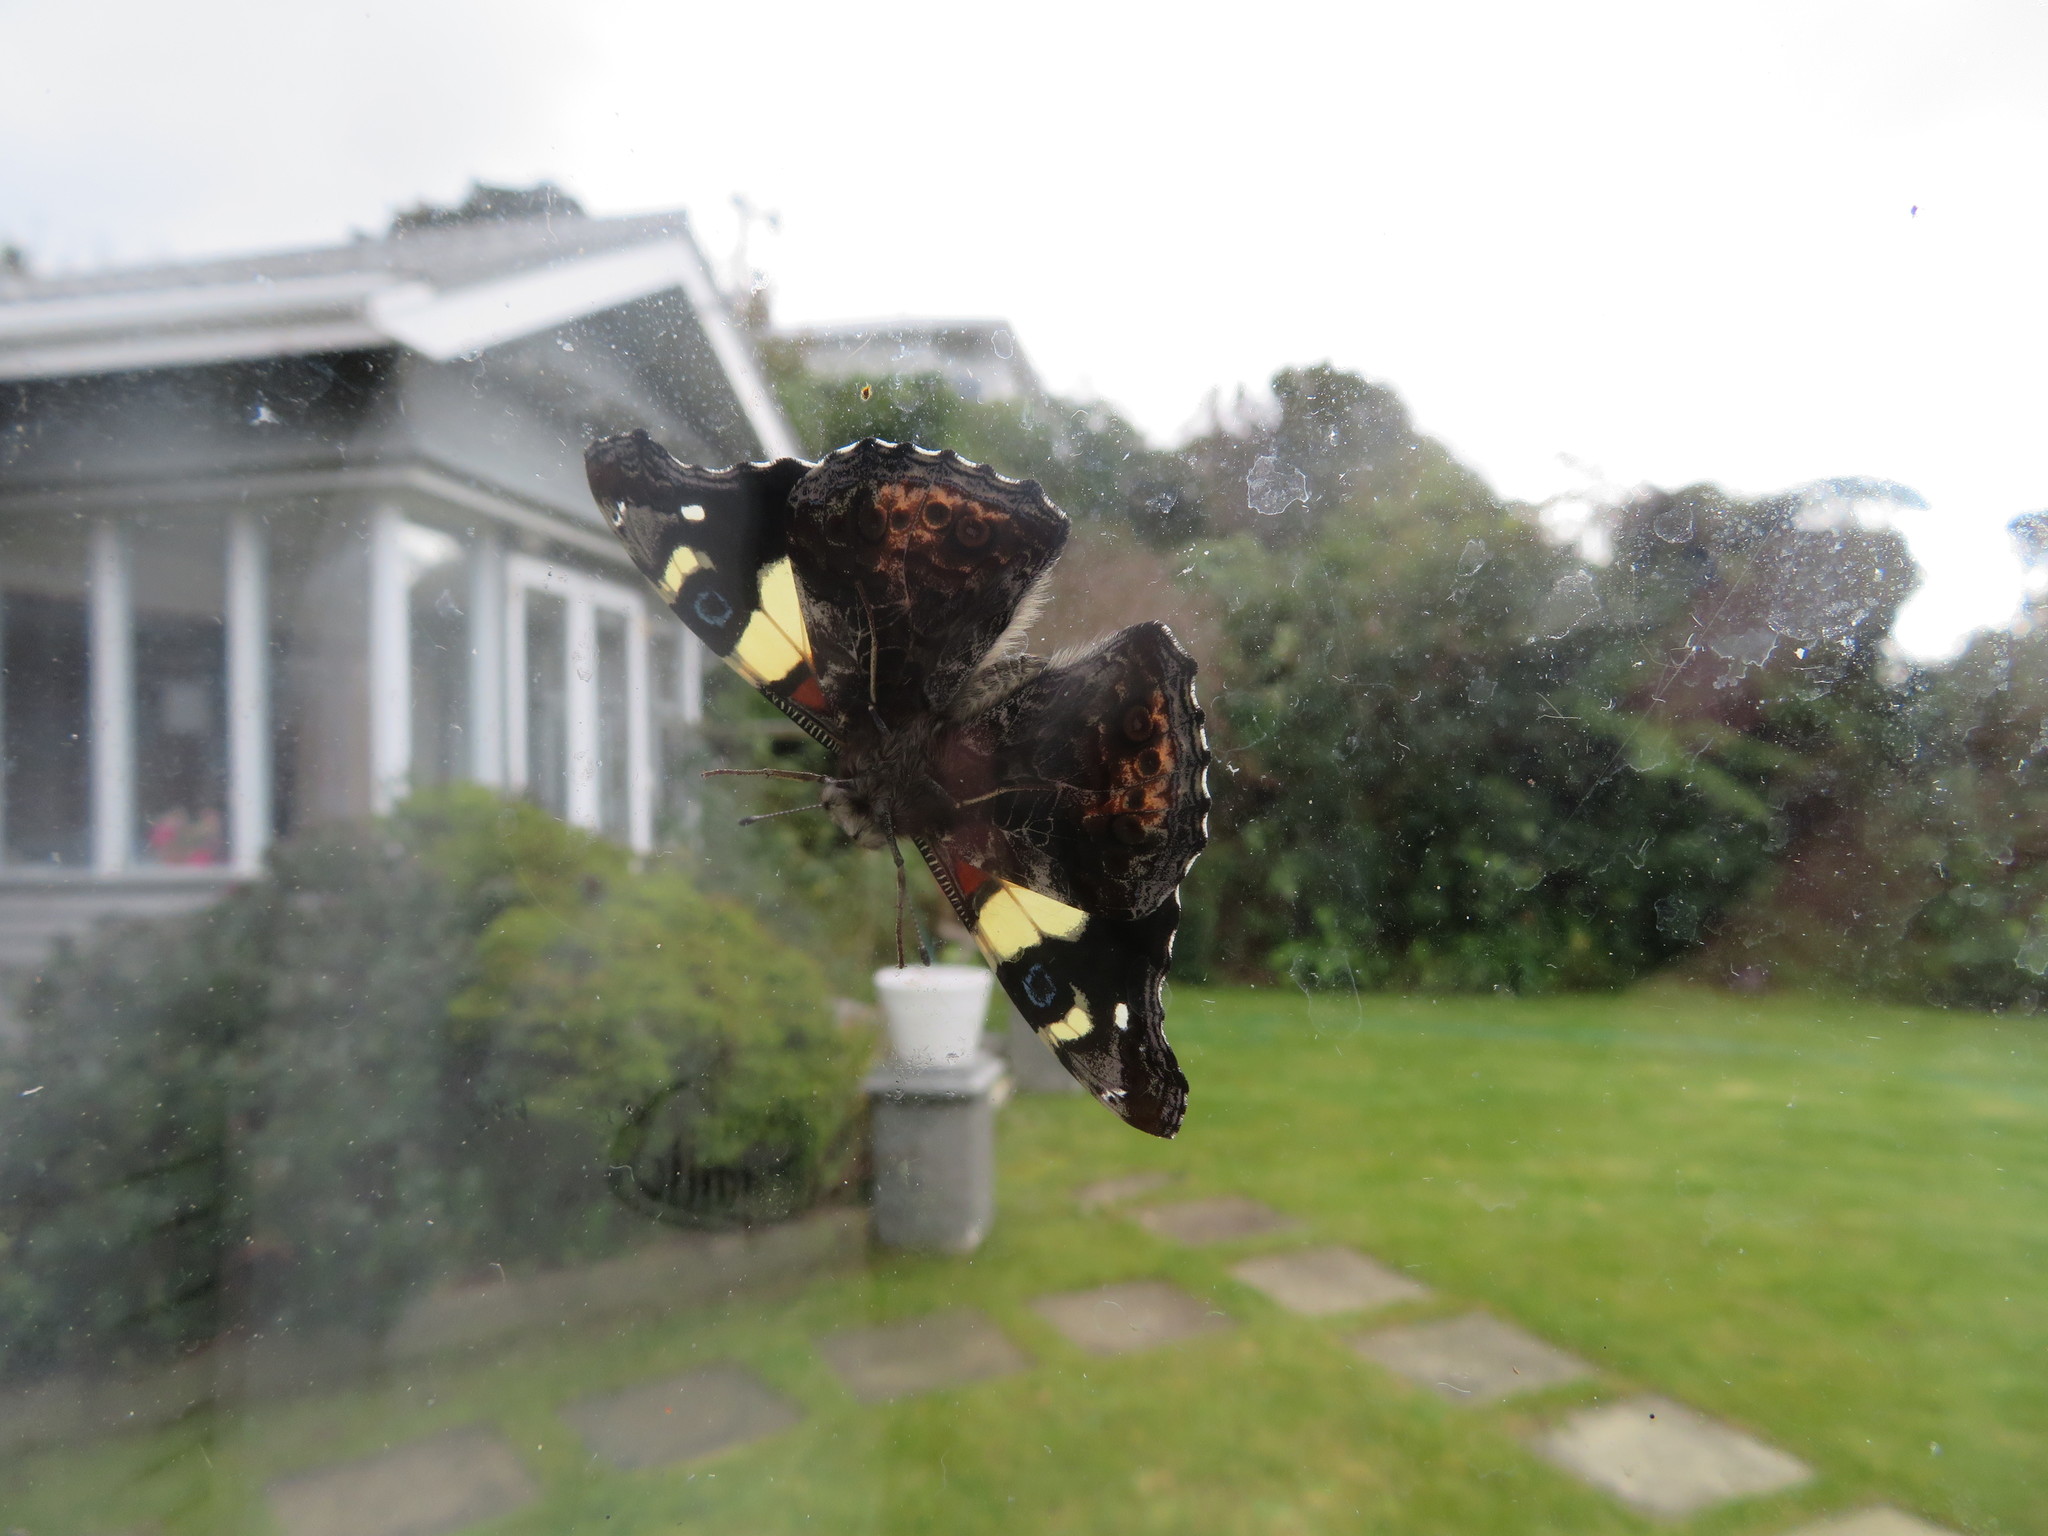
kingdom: Animalia
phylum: Arthropoda
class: Insecta
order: Lepidoptera
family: Nymphalidae
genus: Vanessa
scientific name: Vanessa itea
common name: Yellow admiral
